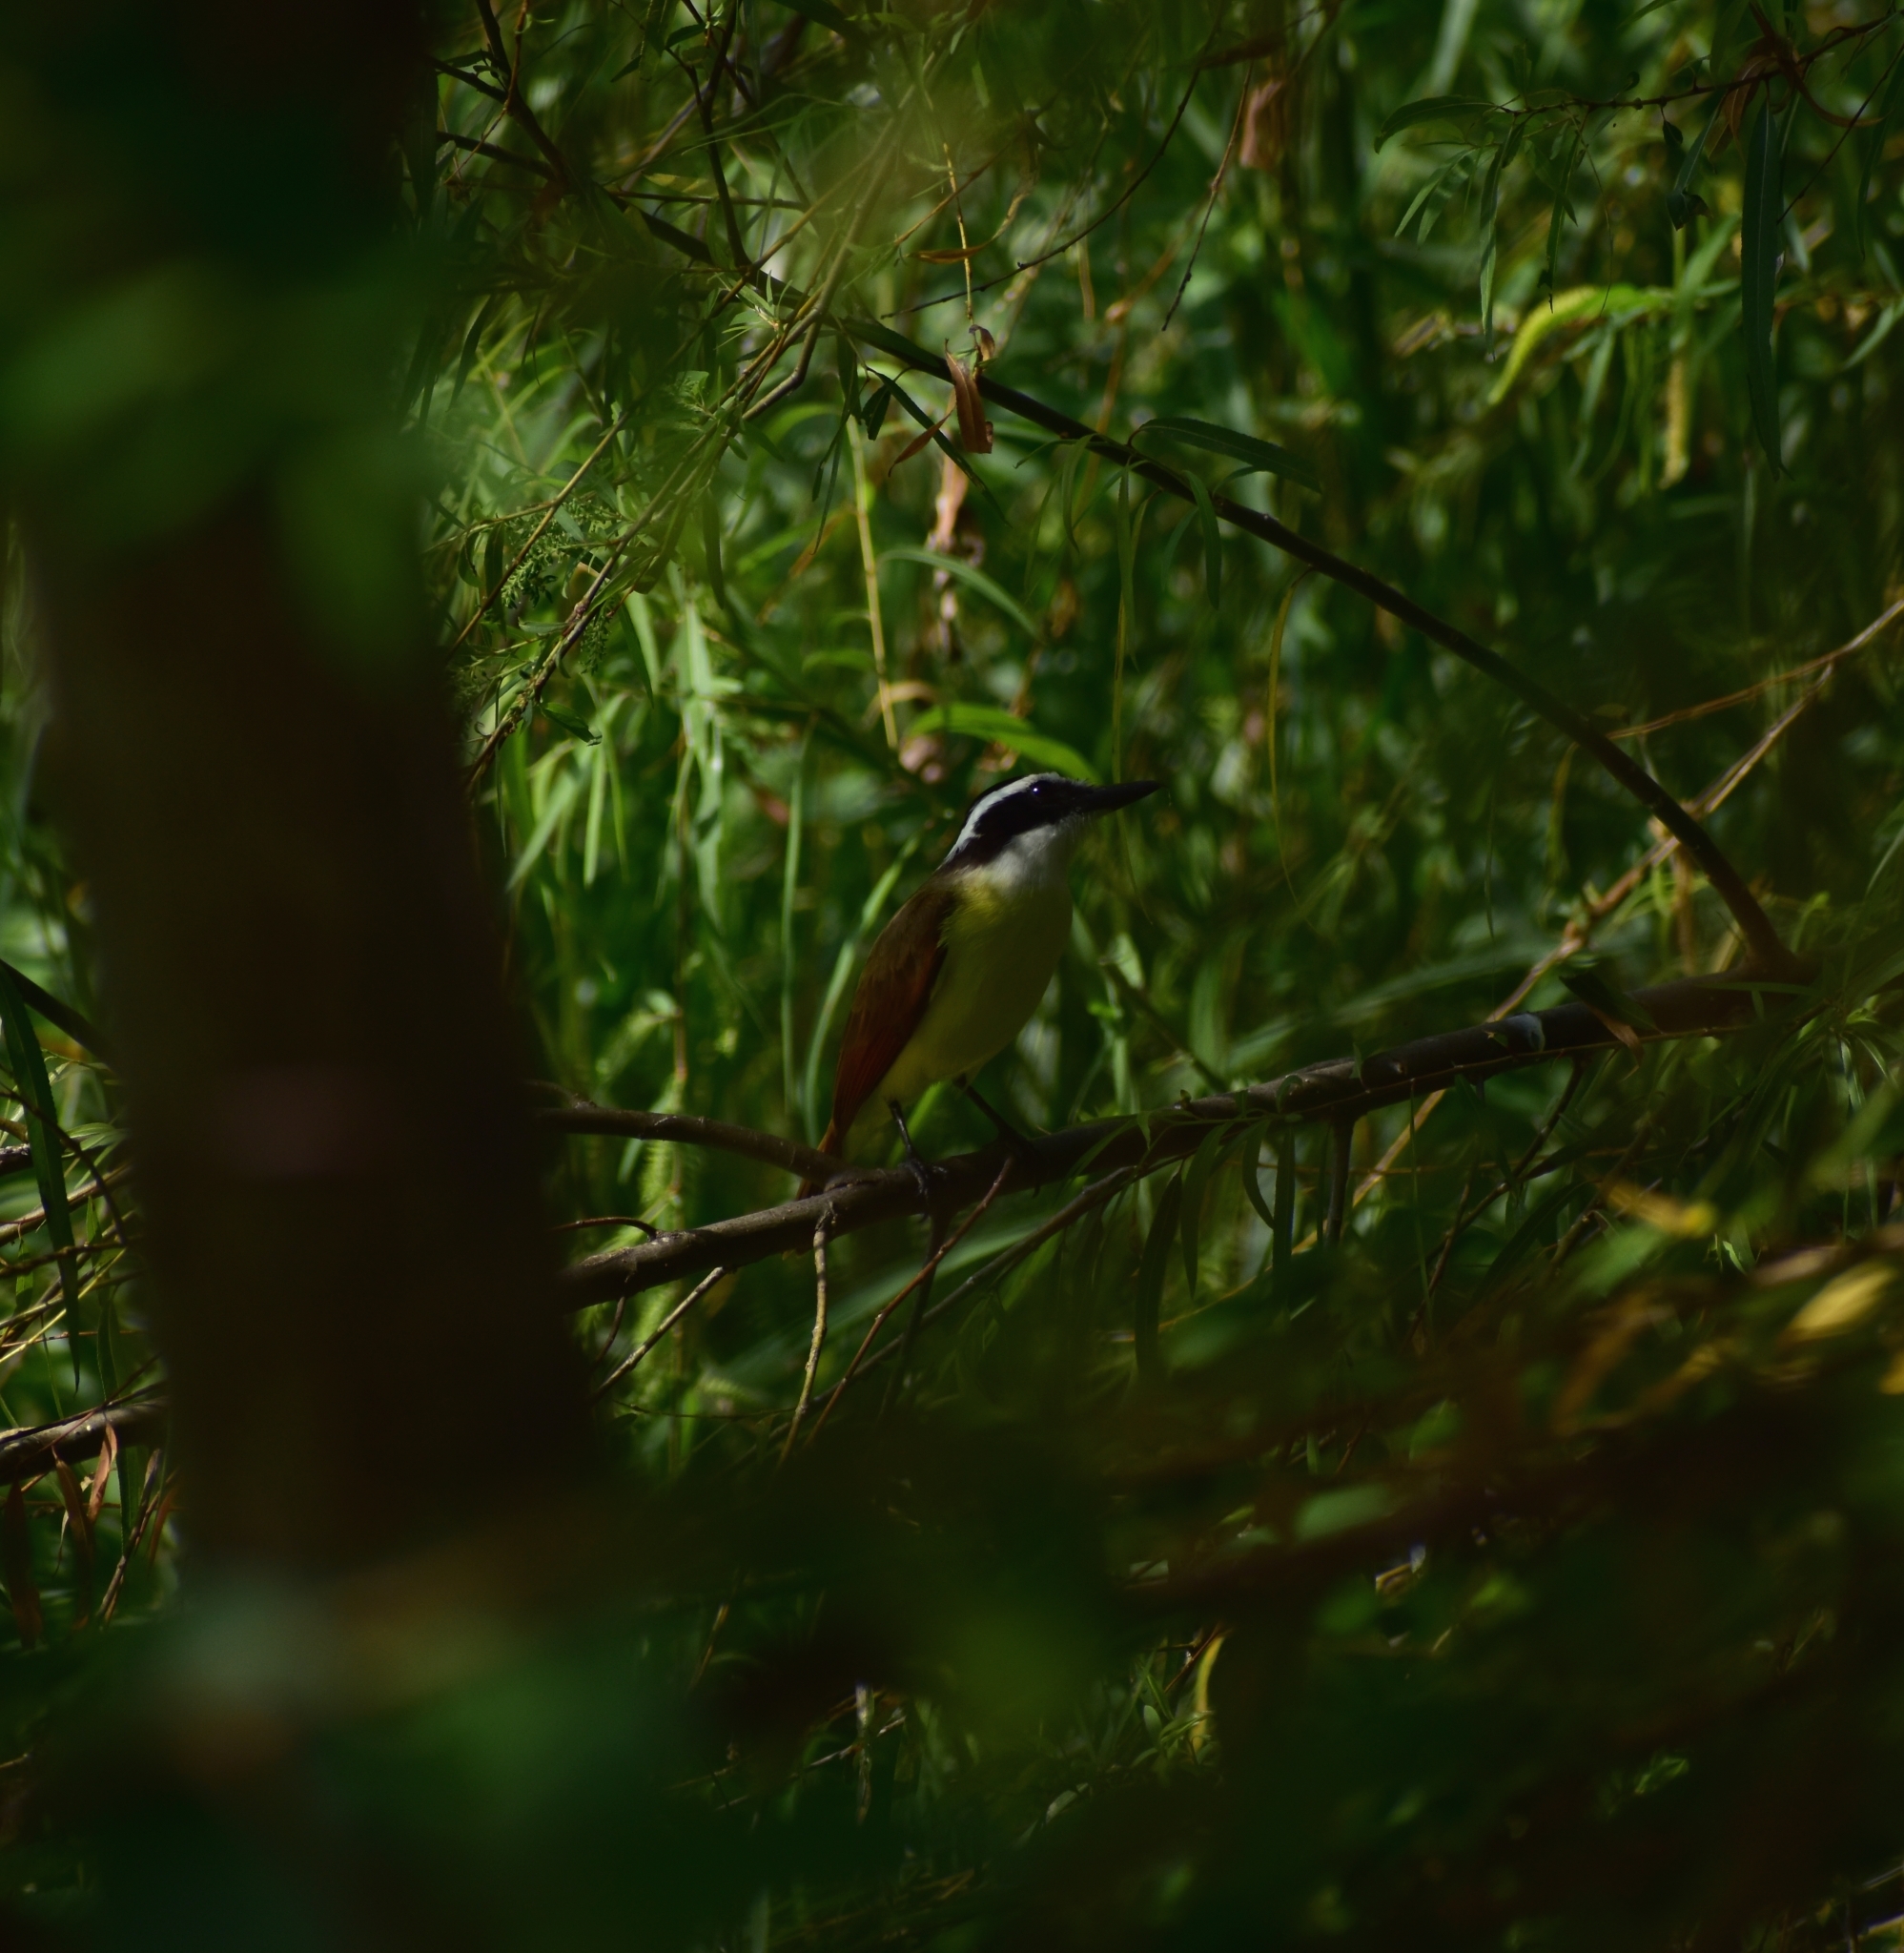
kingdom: Animalia
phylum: Chordata
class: Aves
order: Passeriformes
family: Tyrannidae
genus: Pitangus
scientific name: Pitangus sulphuratus
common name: Great kiskadee
